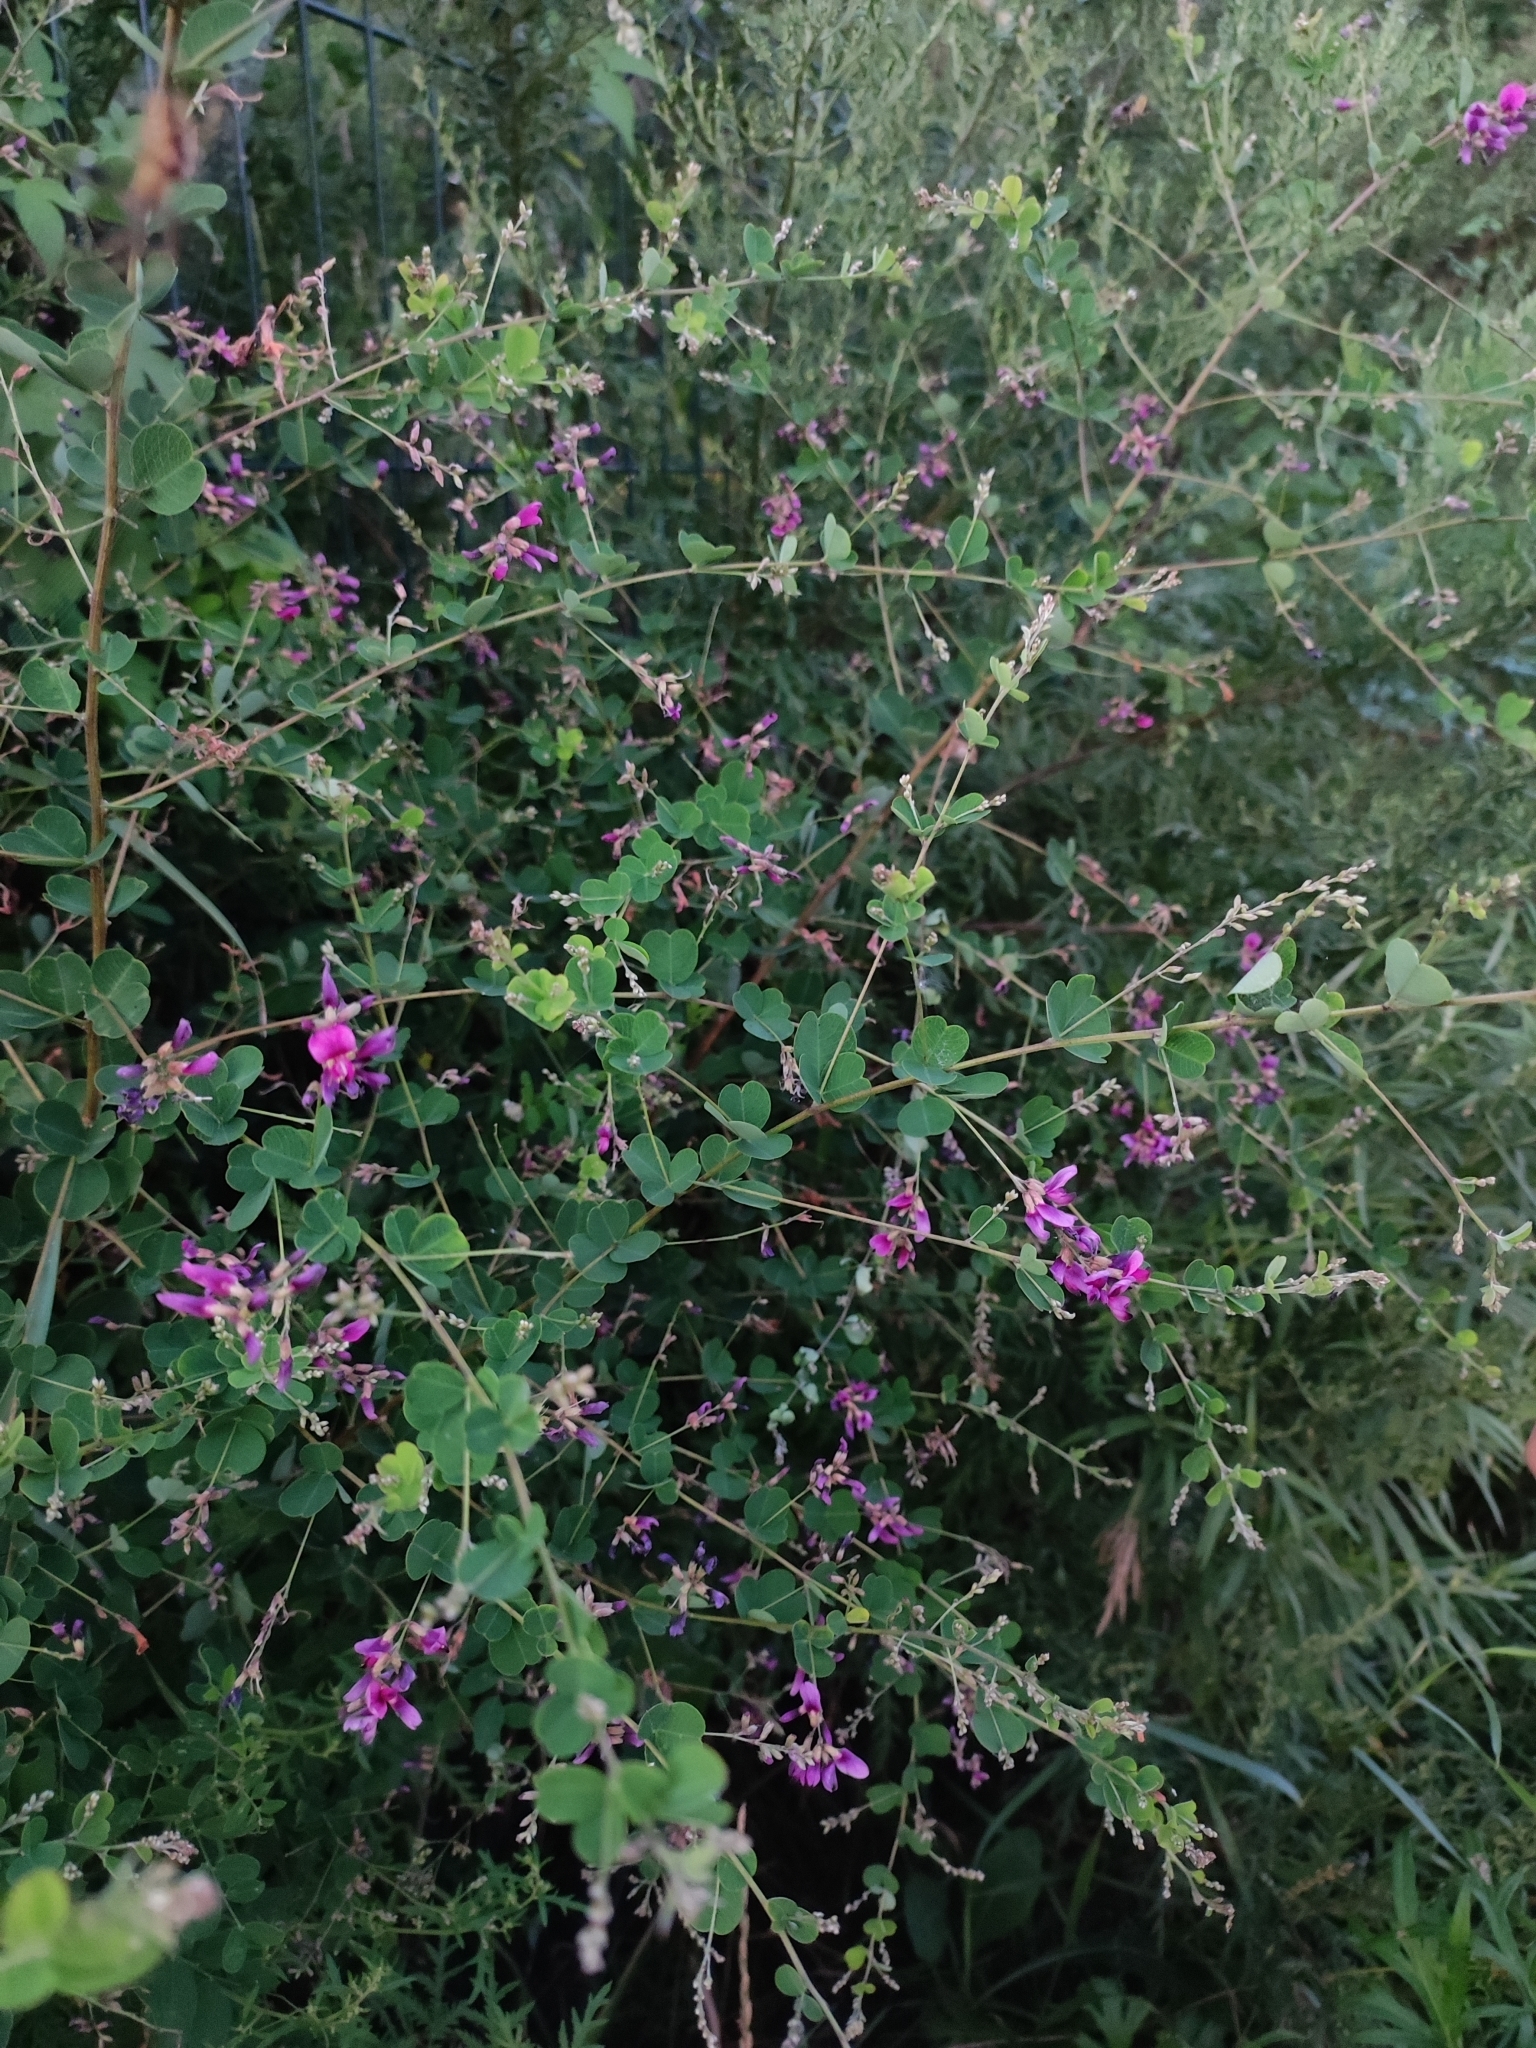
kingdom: Plantae
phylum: Tracheophyta
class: Magnoliopsida
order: Fabales
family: Fabaceae
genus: Lespedeza
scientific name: Lespedeza bicolor
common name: Shrub lespedeza
